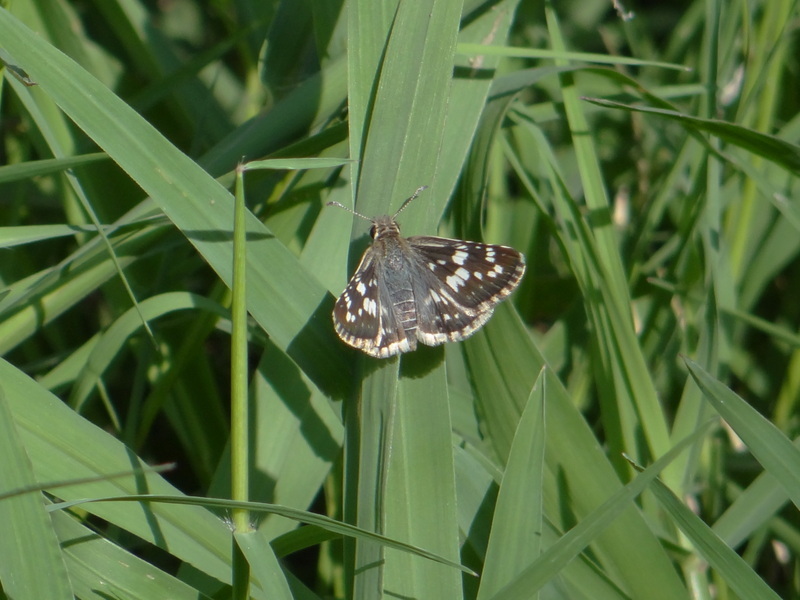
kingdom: Animalia
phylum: Arthropoda
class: Insecta
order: Lepidoptera
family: Hesperiidae
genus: Burnsius
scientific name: Burnsius orcynoides
